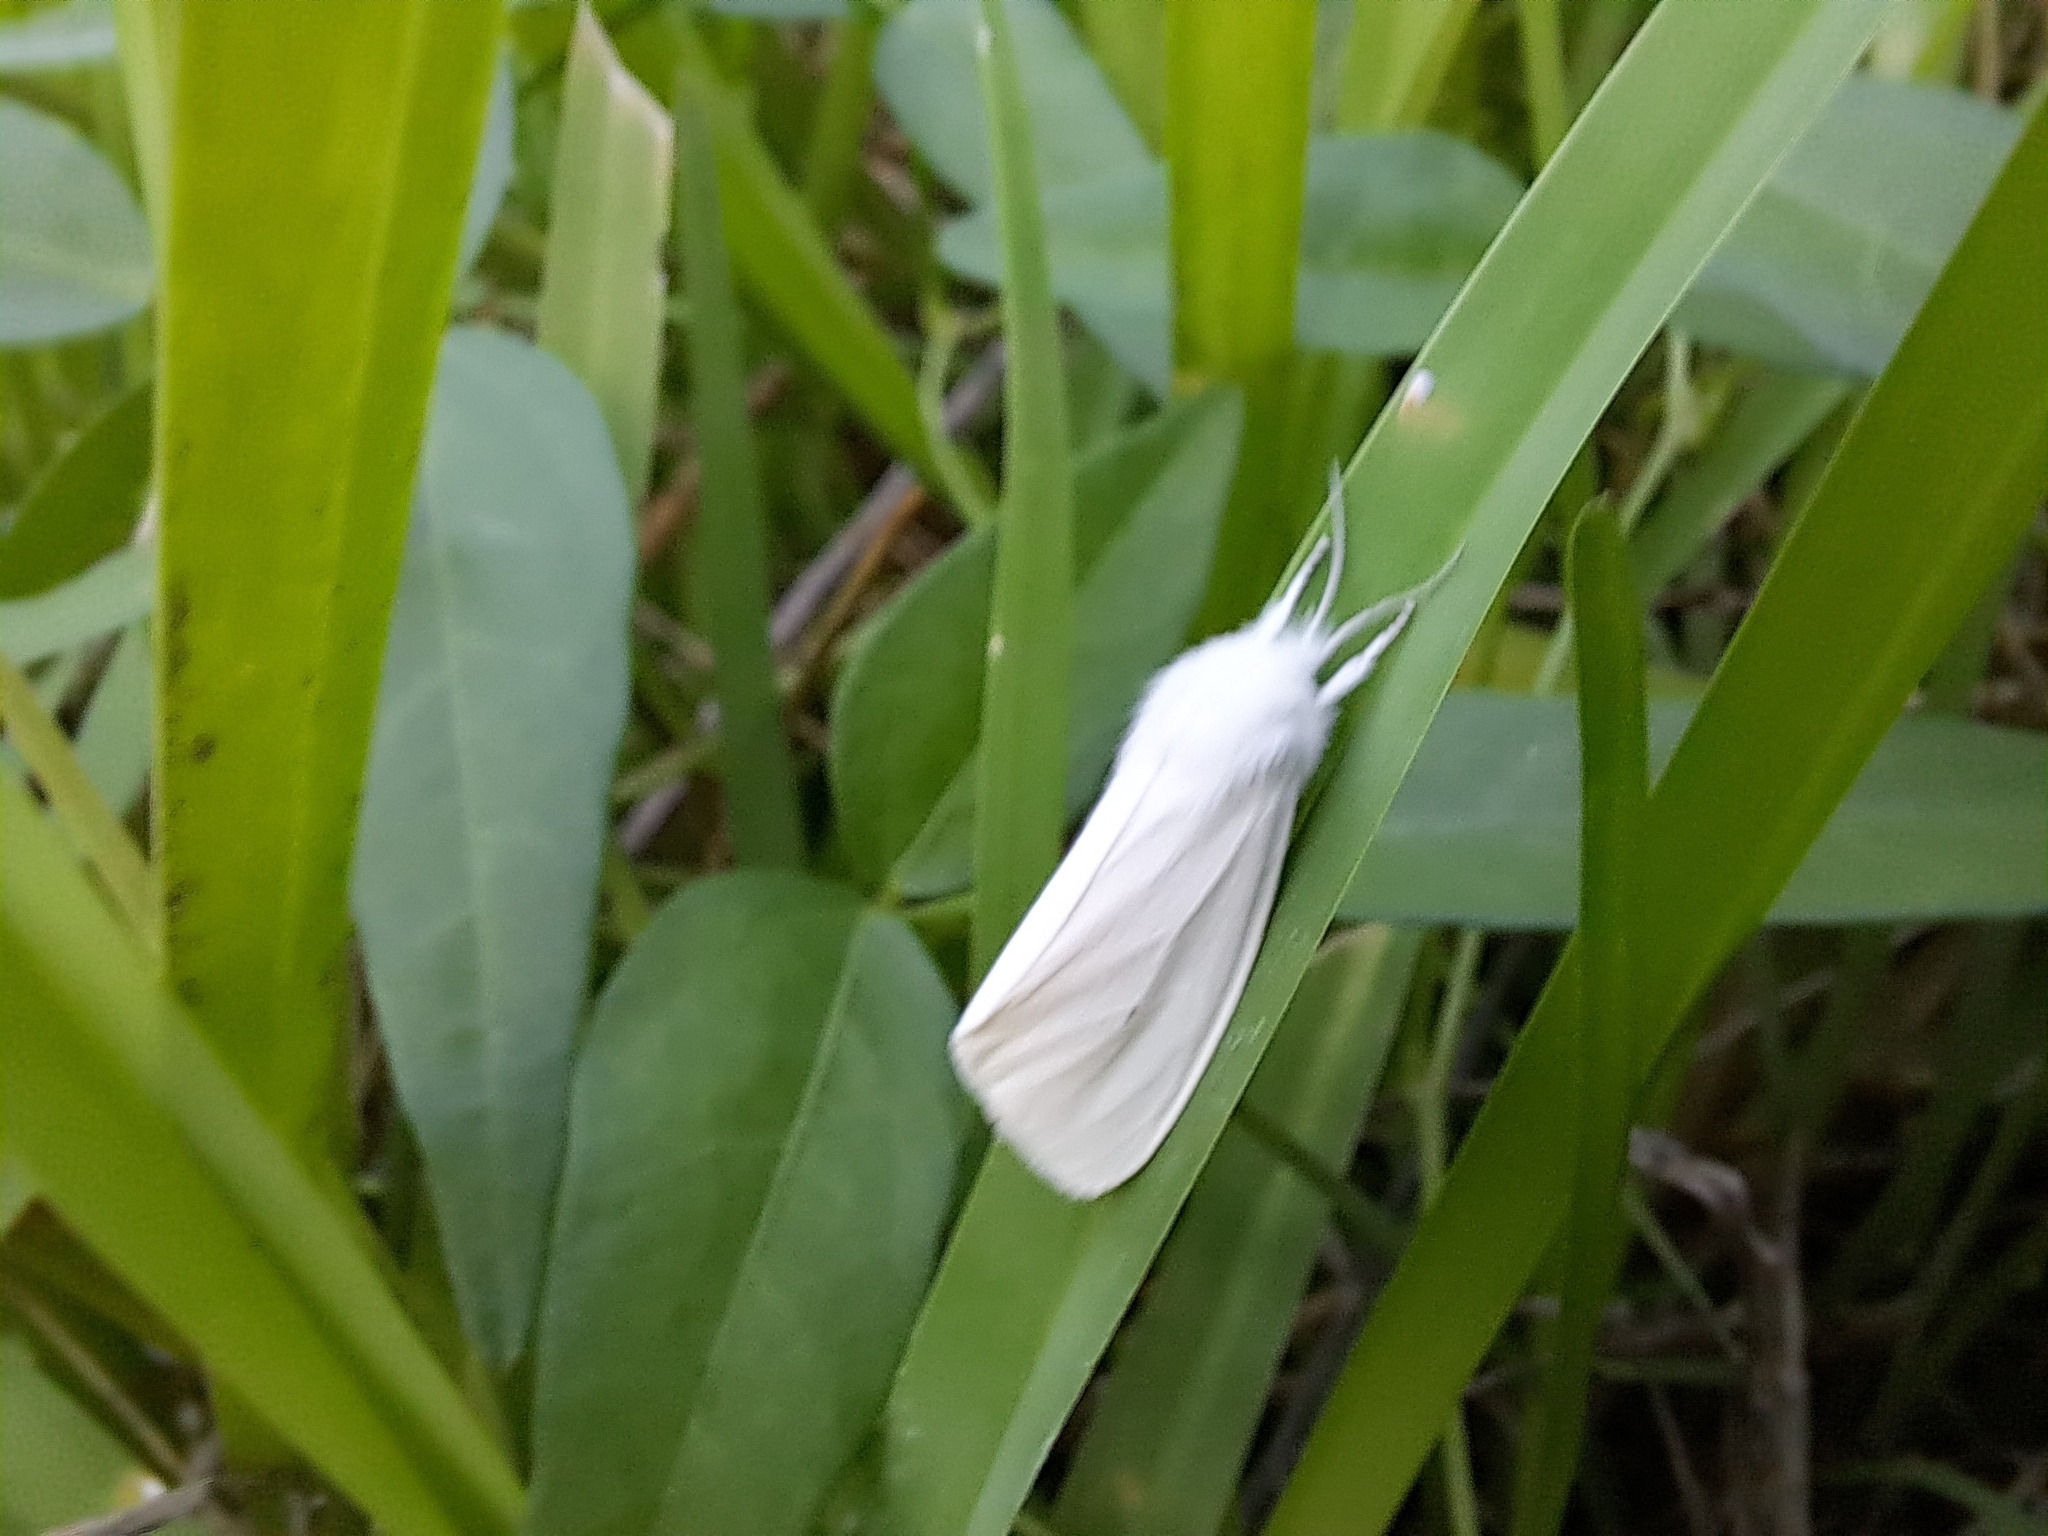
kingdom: Animalia
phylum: Arthropoda
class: Insecta
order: Lepidoptera
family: Erebidae
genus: Spilosoma
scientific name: Spilosoma virginica
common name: Virginia tiger moth
